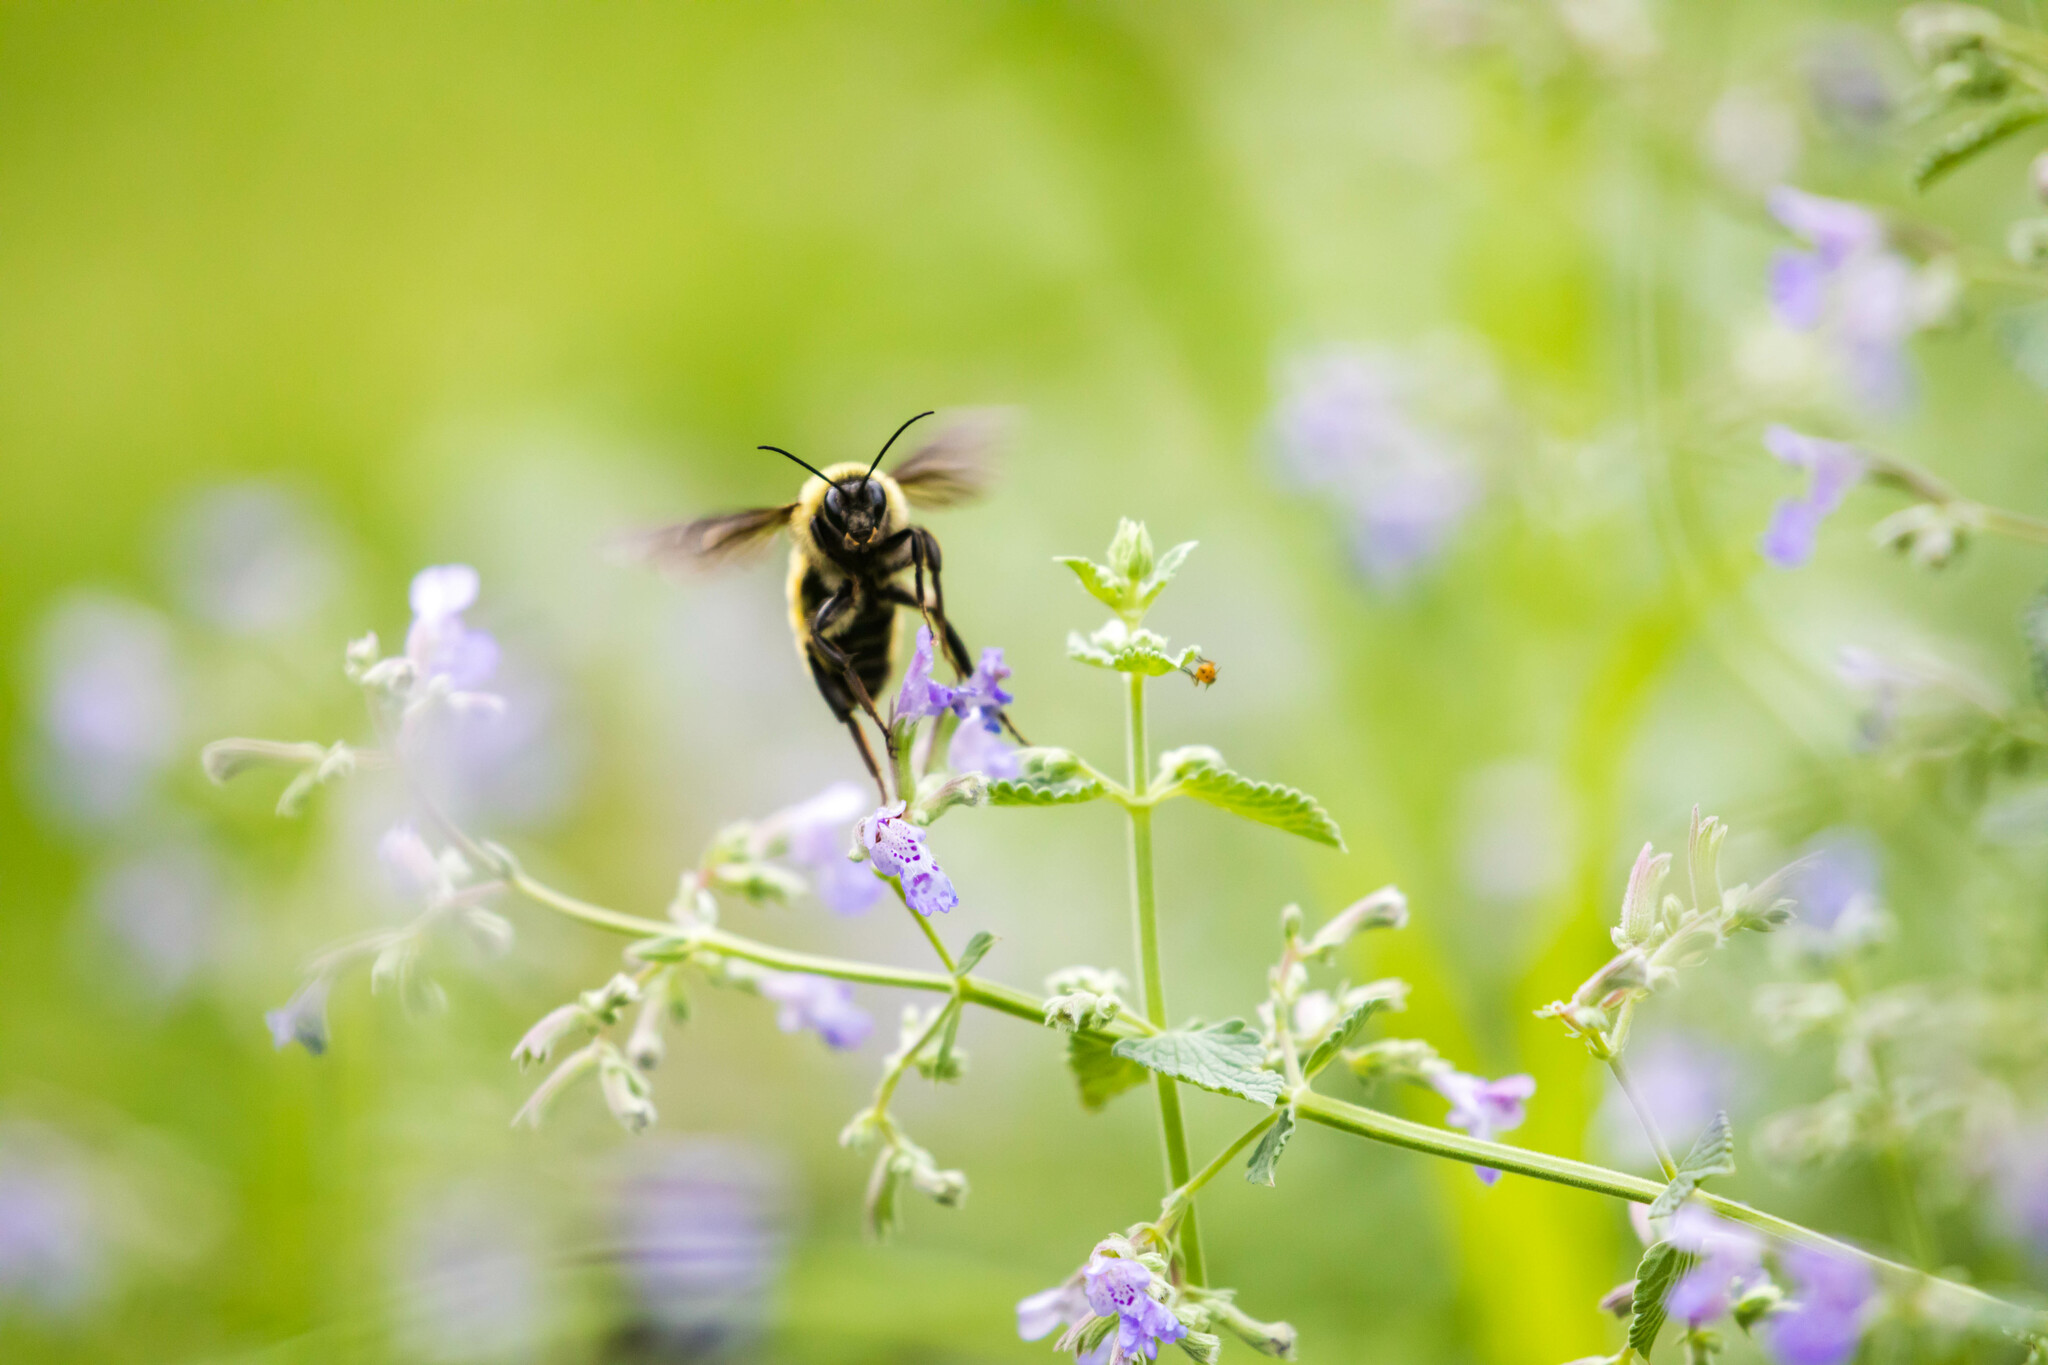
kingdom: Animalia
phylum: Arthropoda
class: Insecta
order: Hymenoptera
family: Apidae
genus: Bombus
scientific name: Bombus pensylvanicus
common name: Bumble bee
